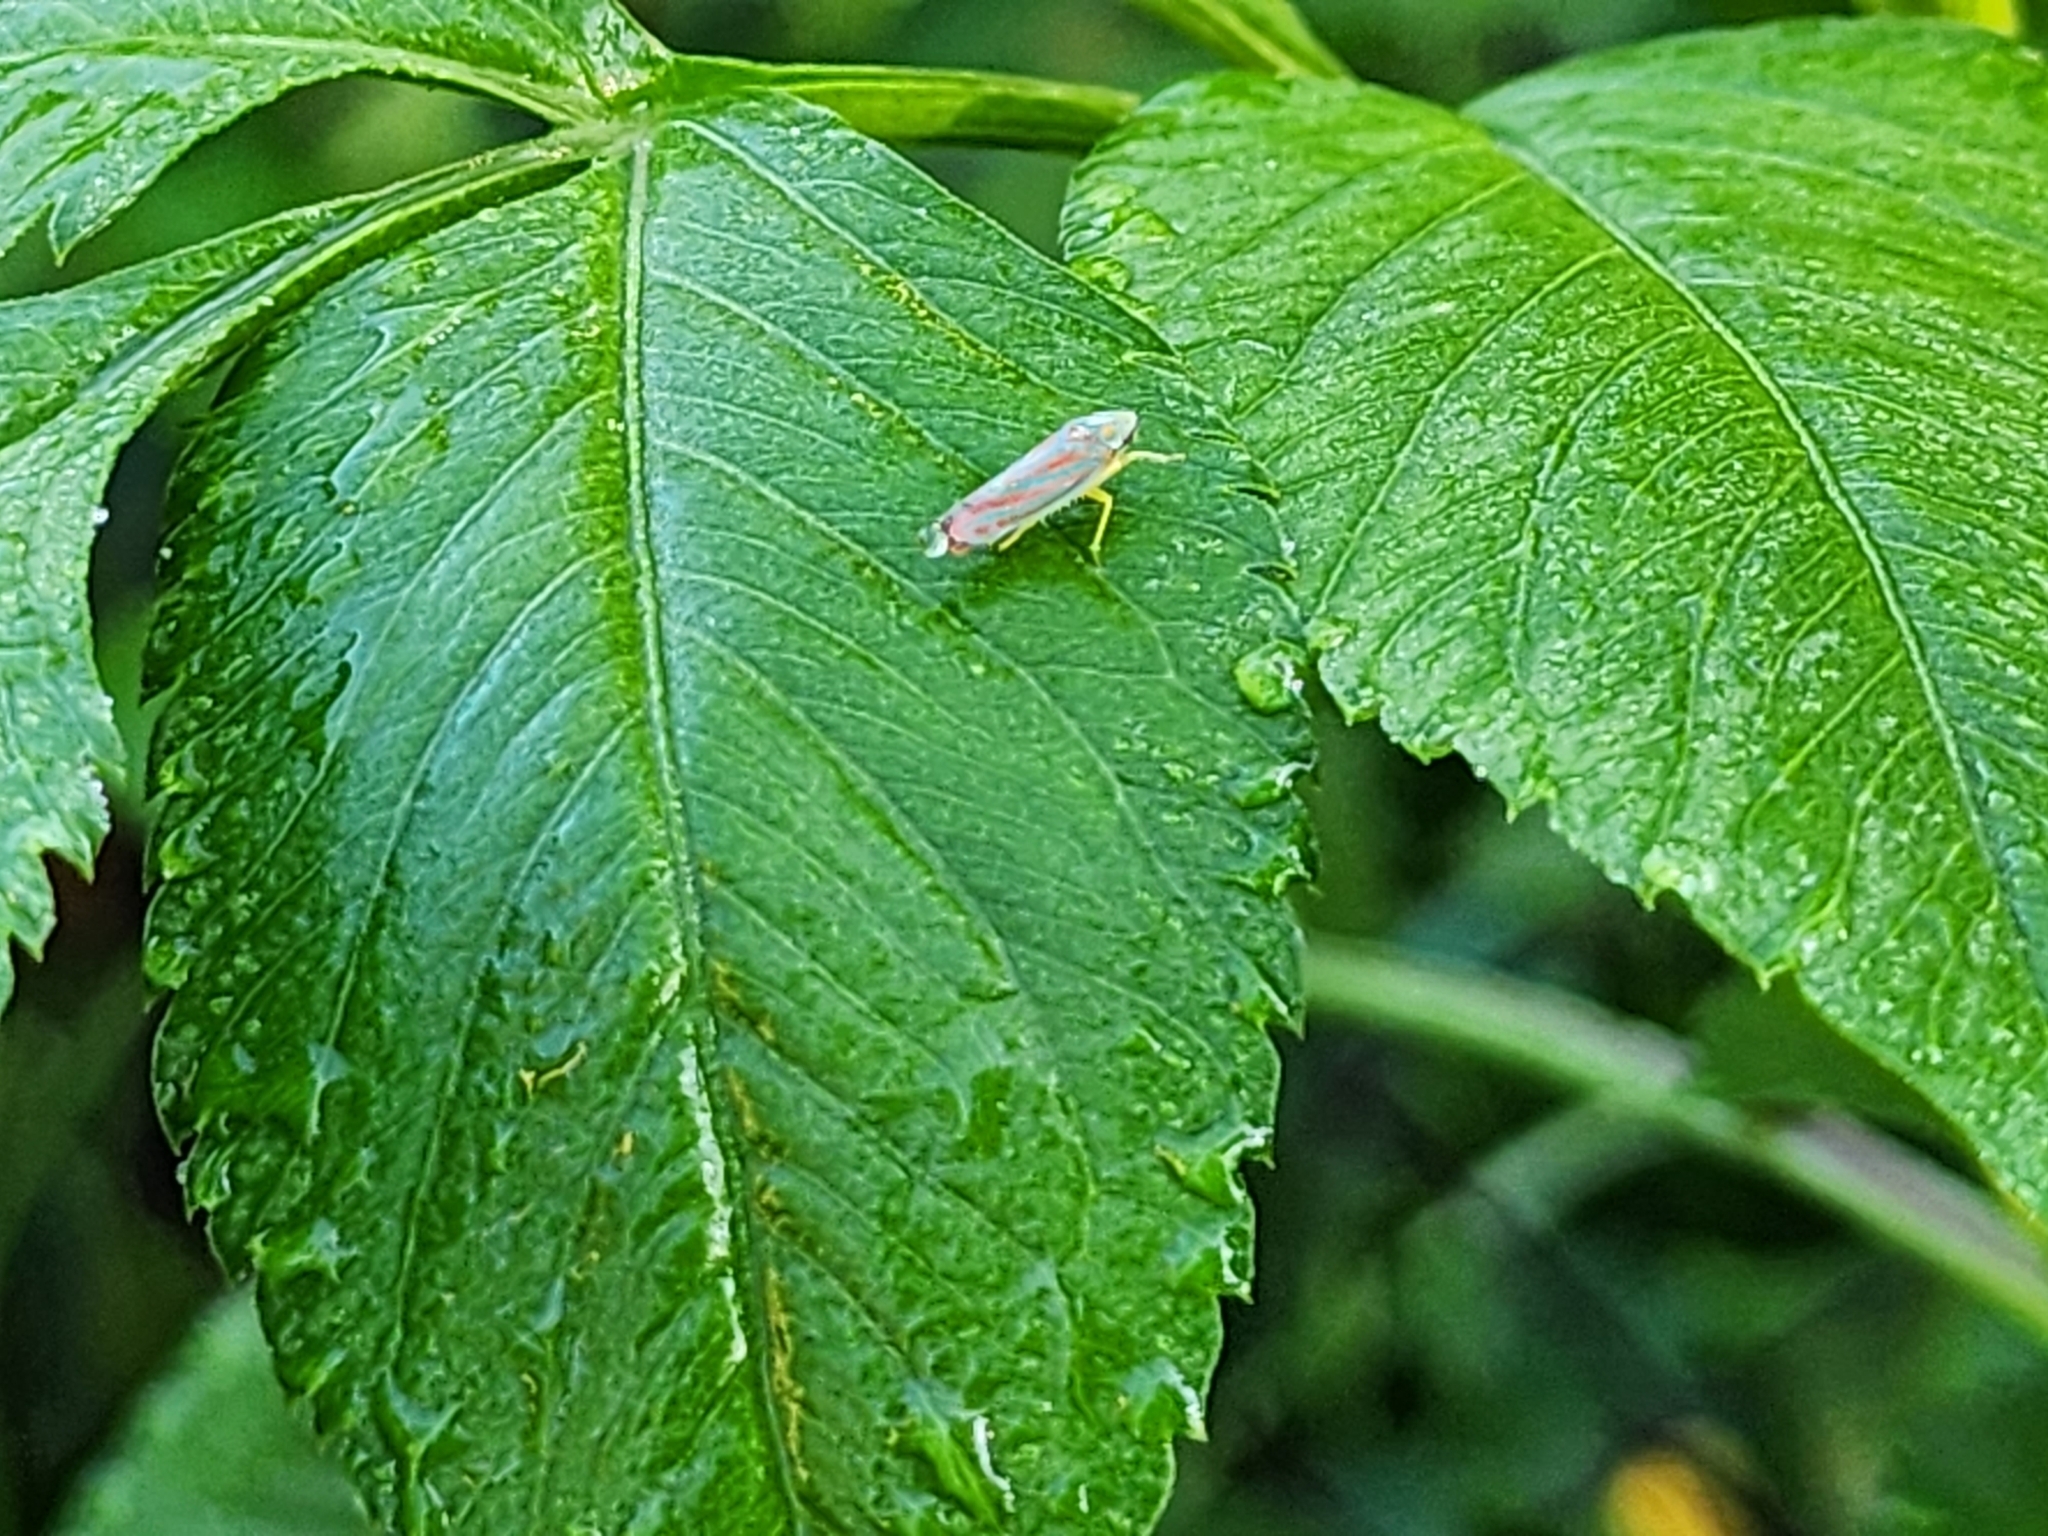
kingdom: Animalia
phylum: Arthropoda
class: Insecta
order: Hemiptera
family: Cicadellidae
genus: Graphocephala
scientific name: Graphocephala coccinea
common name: Candy-striped leafhopper
